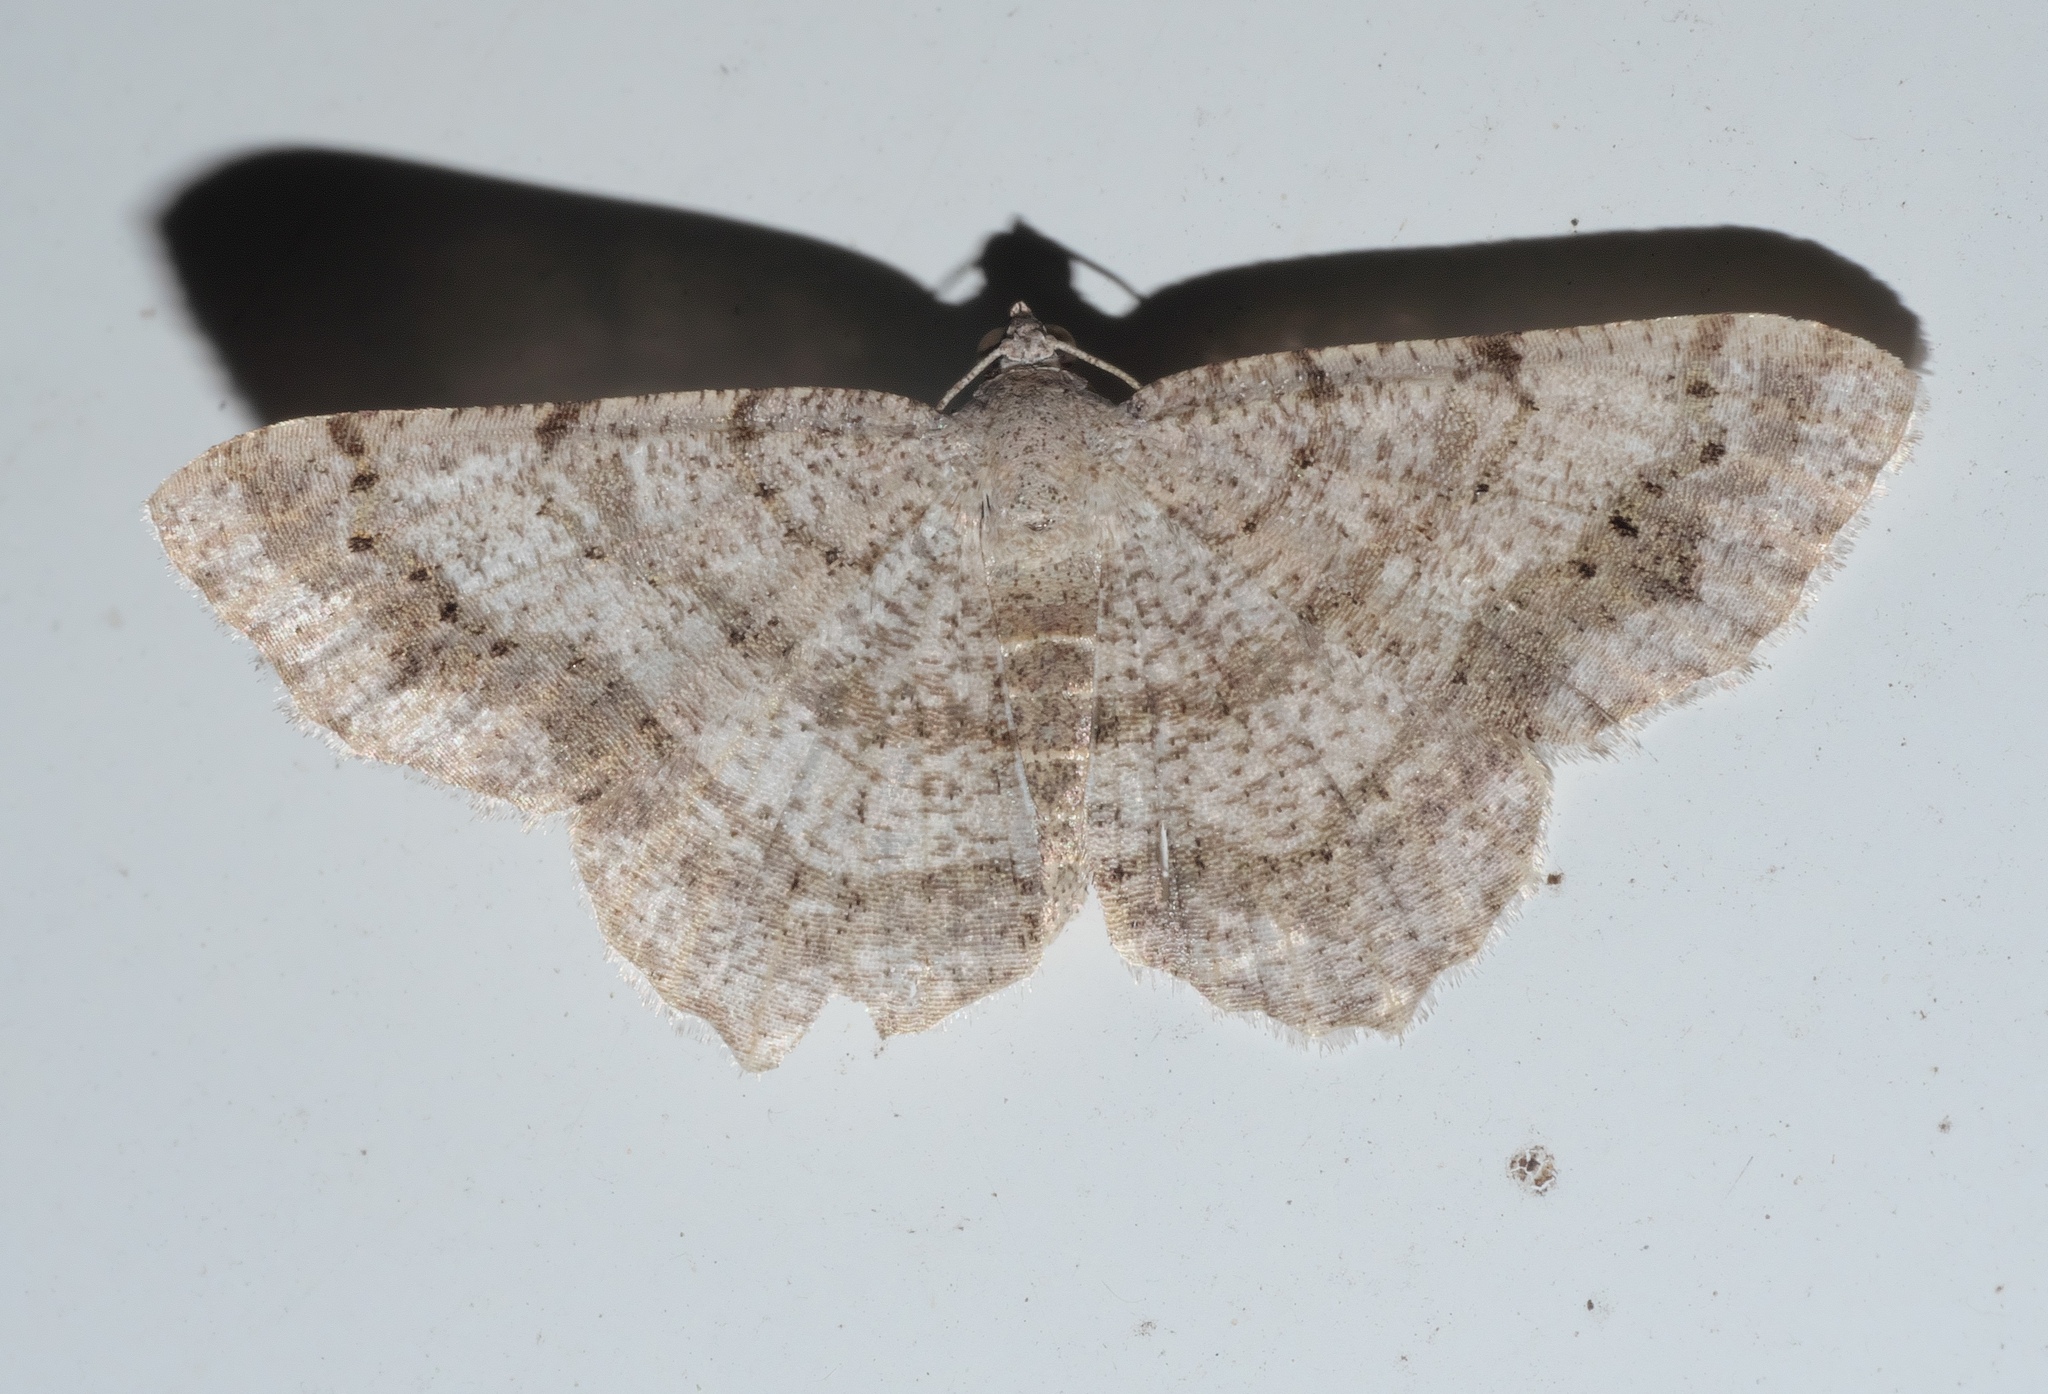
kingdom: Animalia
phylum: Arthropoda
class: Insecta
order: Lepidoptera
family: Geometridae
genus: Digrammia
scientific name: Digrammia ocellinata
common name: Faint-spotted angle
